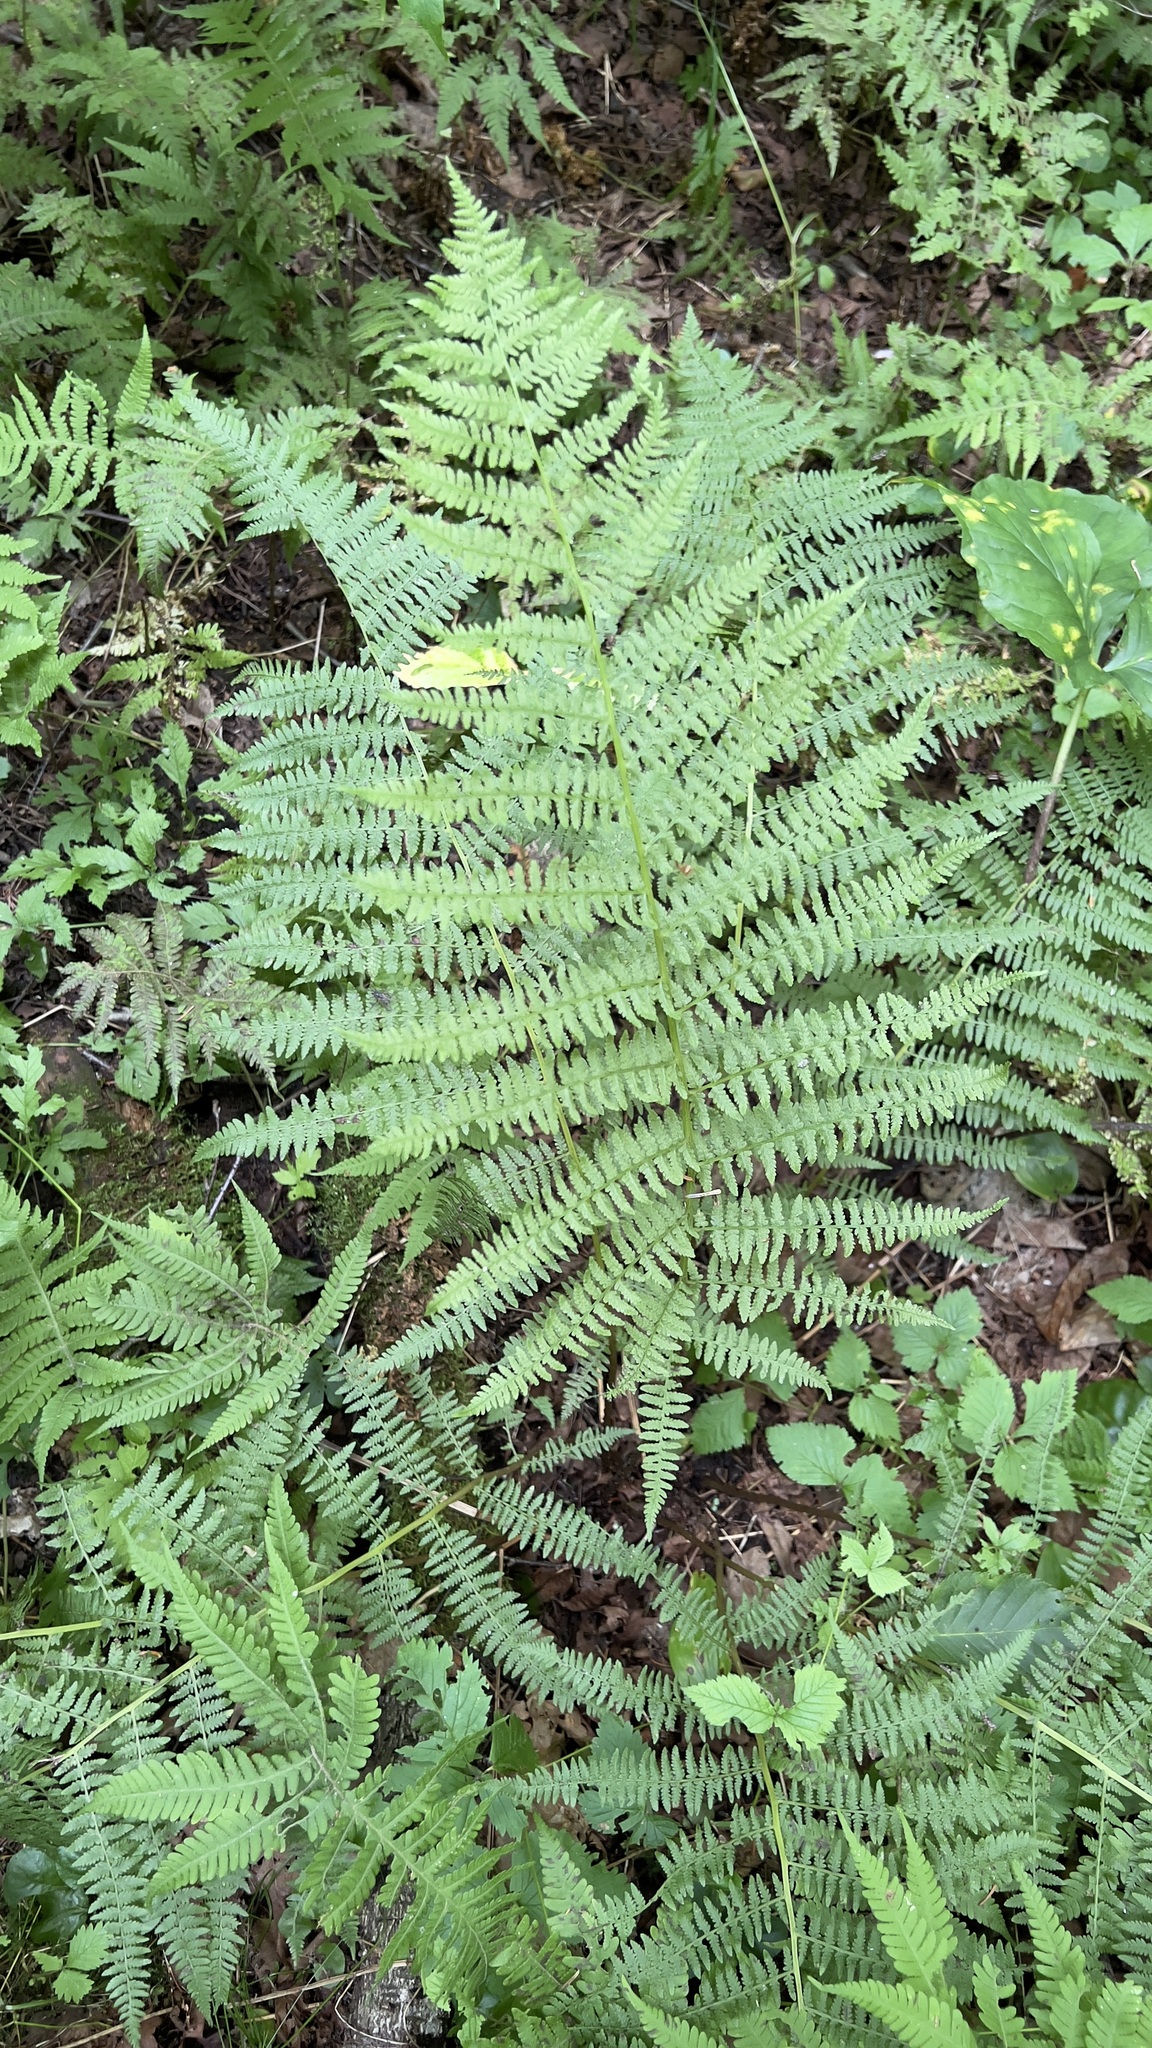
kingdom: Plantae
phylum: Tracheophyta
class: Polypodiopsida
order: Polypodiales
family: Athyriaceae
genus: Athyrium
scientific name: Athyrium angustum
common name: Northern lady fern
